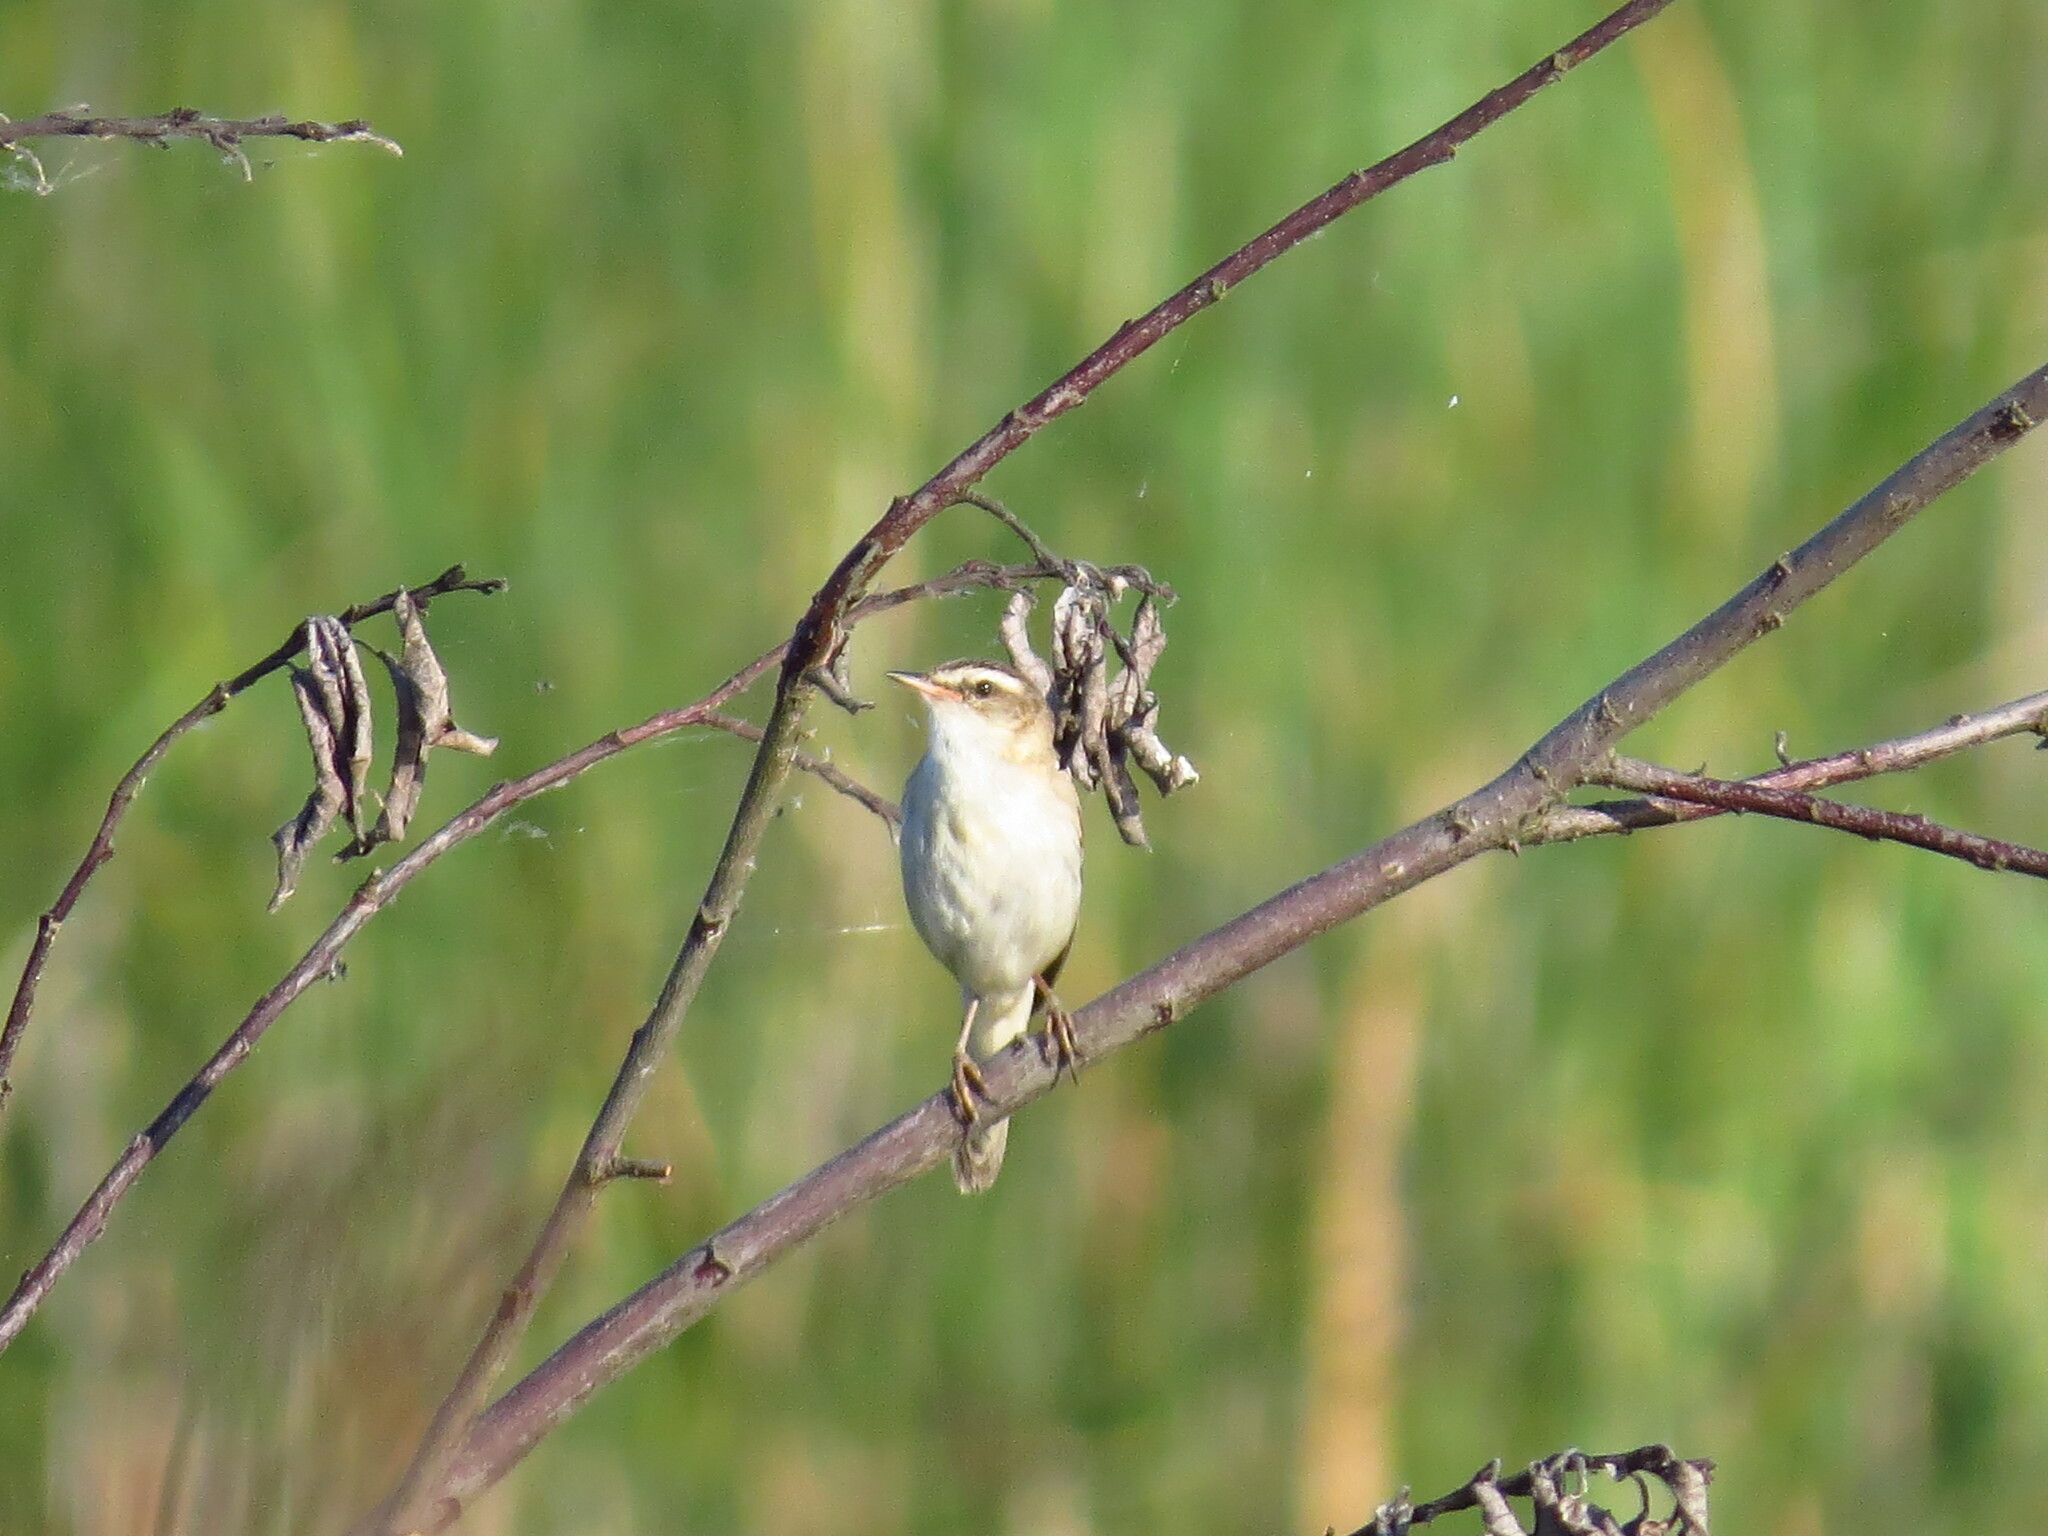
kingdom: Animalia
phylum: Chordata
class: Aves
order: Passeriformes
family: Acrocephalidae
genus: Acrocephalus
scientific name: Acrocephalus schoenobaenus
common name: Sedge warbler
